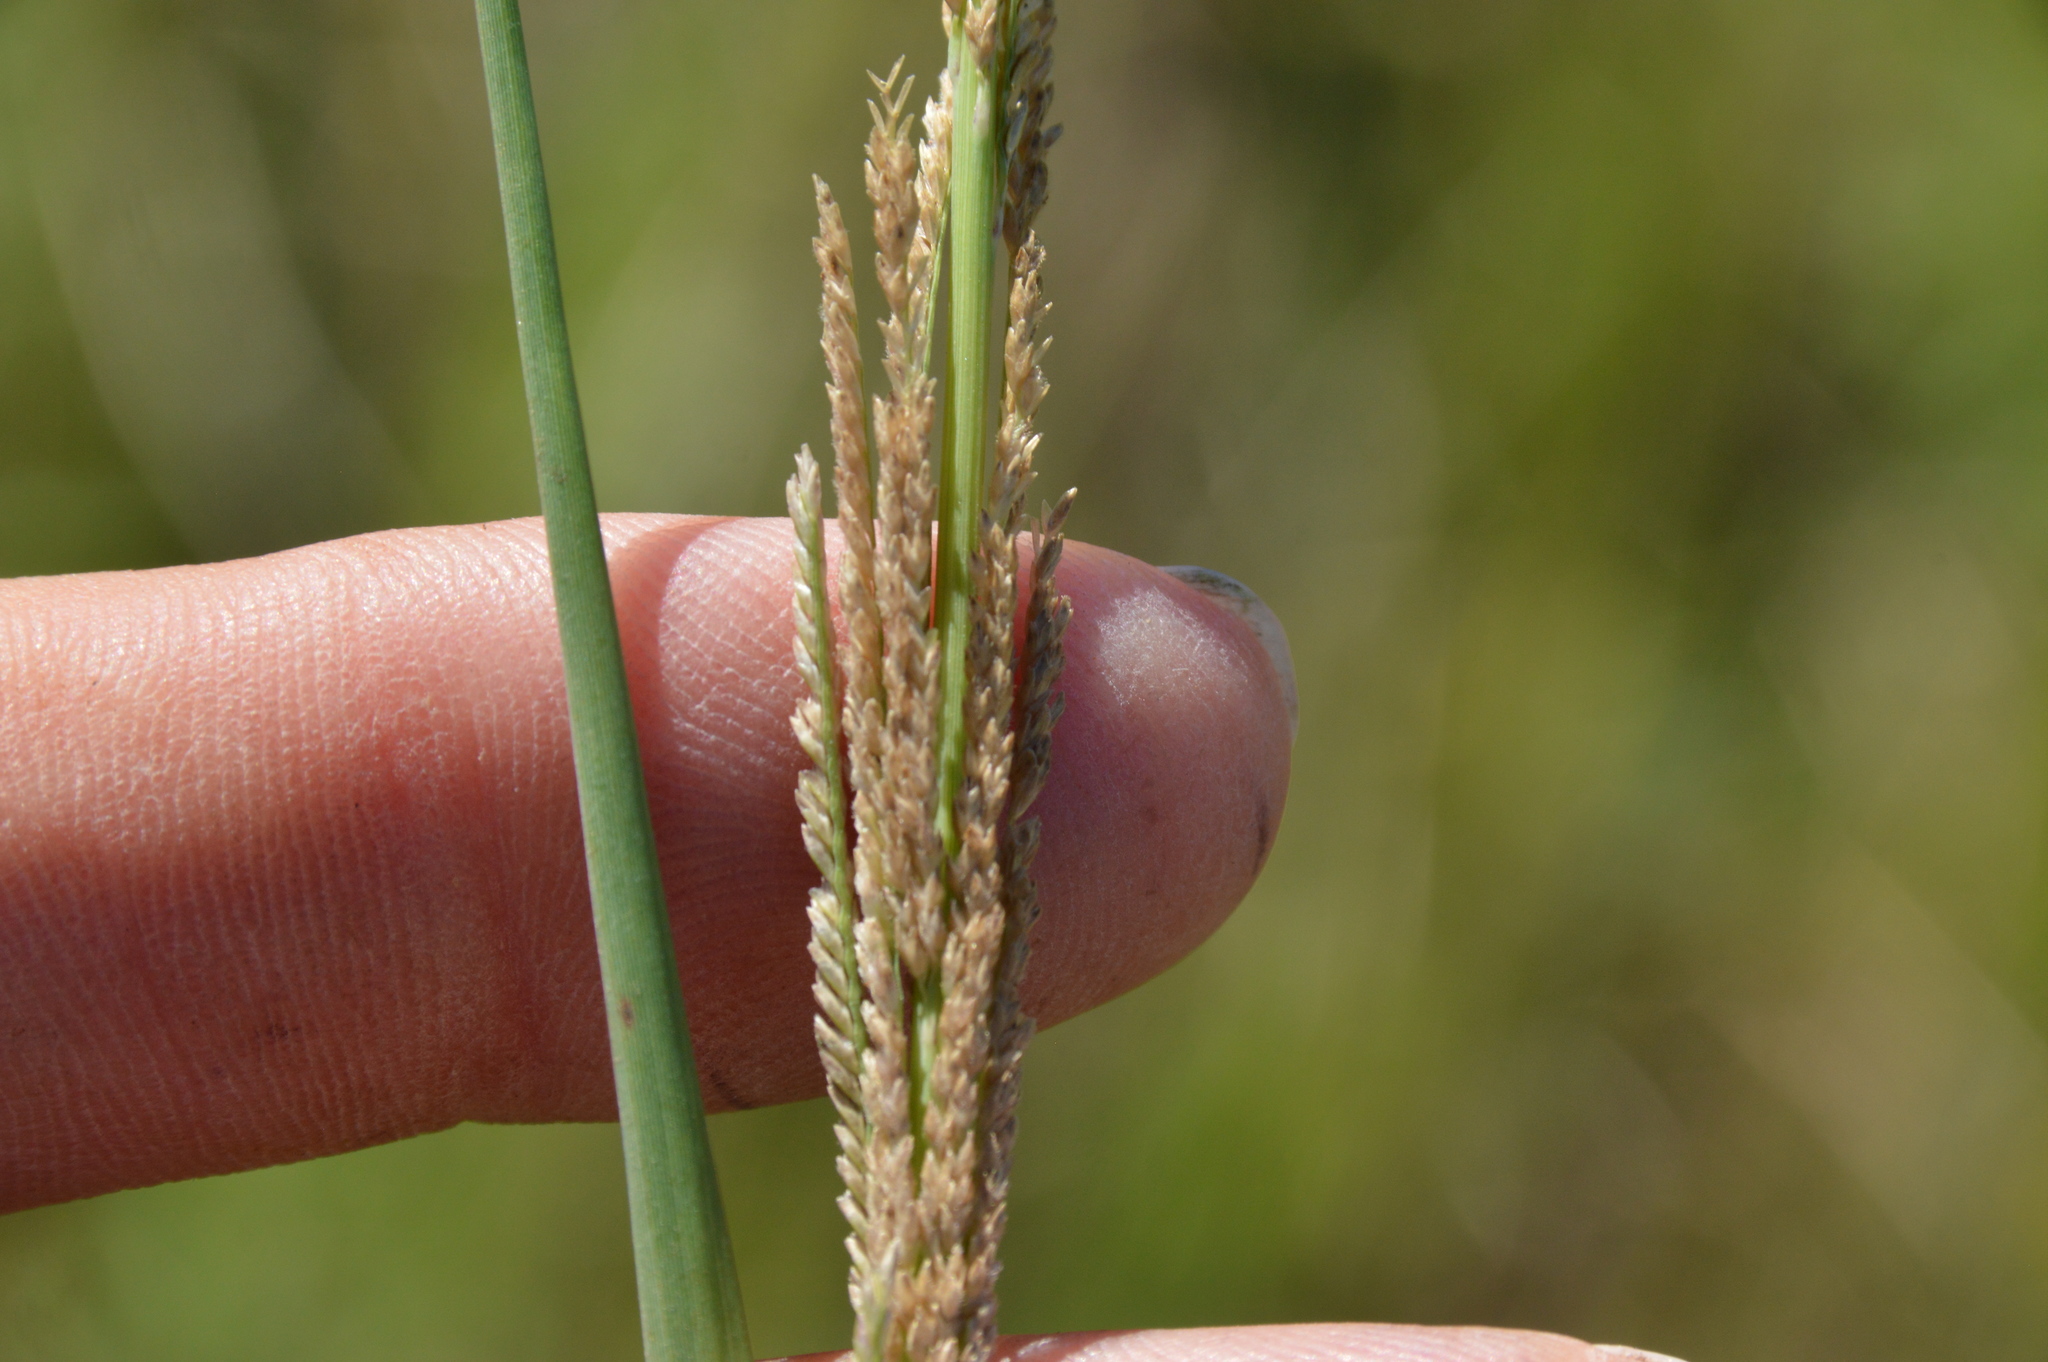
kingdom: Plantae
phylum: Tracheophyta
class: Liliopsida
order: Poales
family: Poaceae
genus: Leptochloa
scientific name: Leptochloa nealleyi
